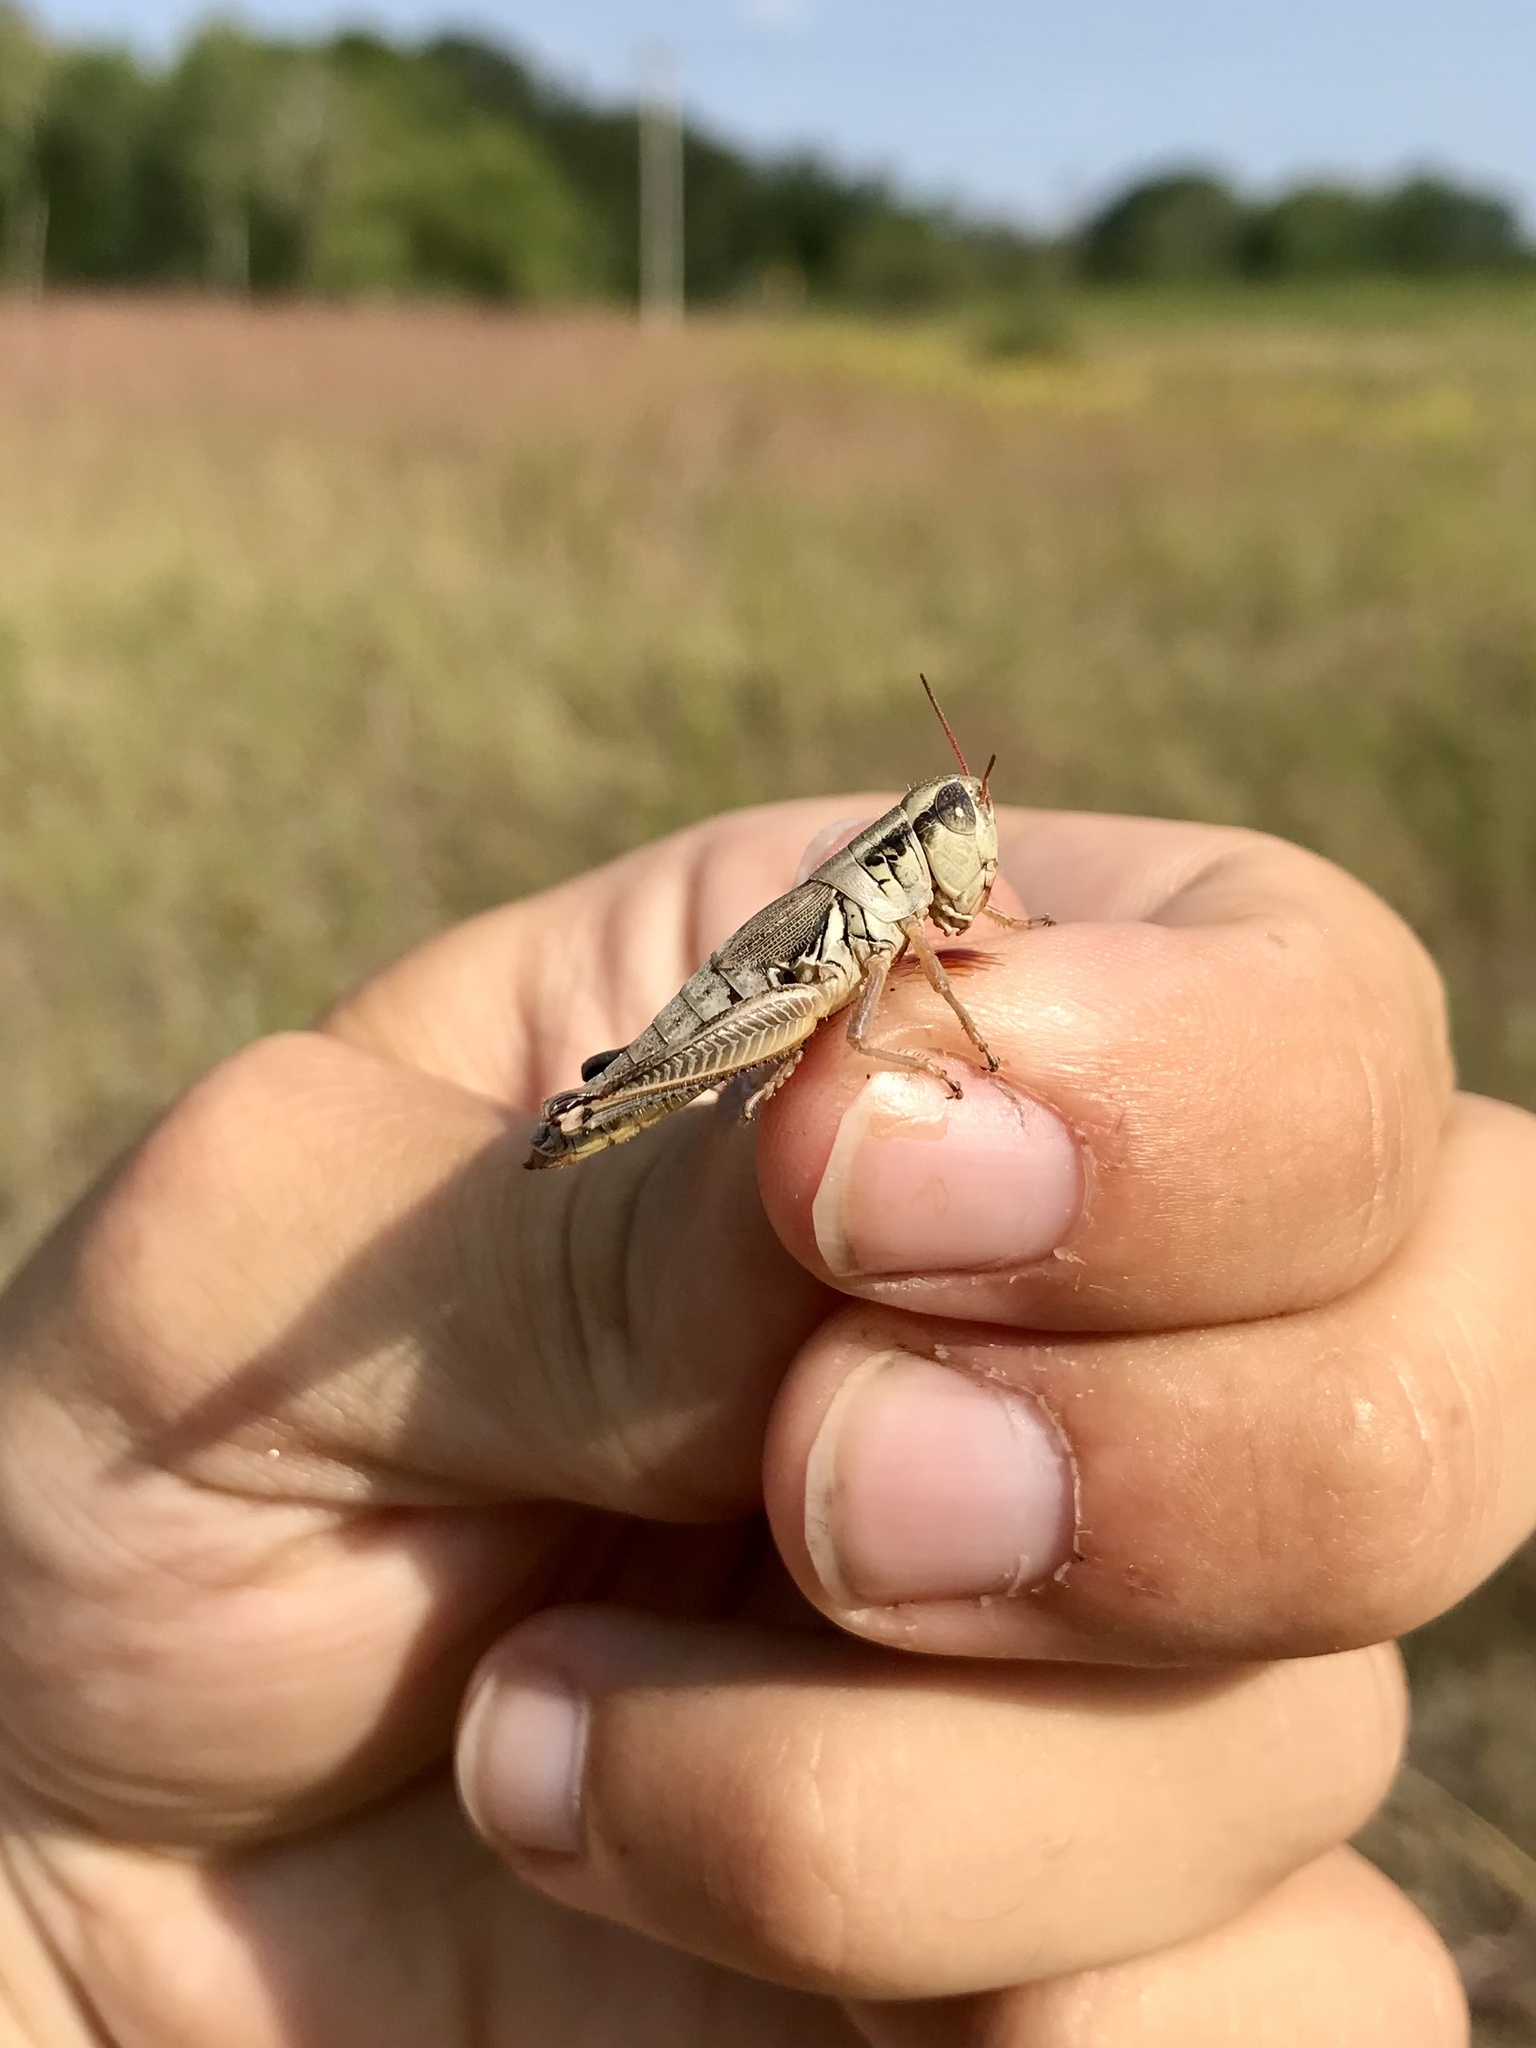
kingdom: Animalia
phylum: Arthropoda
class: Insecta
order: Orthoptera
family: Acrididae
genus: Phoetaliotes
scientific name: Phoetaliotes nebrascensis
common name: Large-headed grasshopper
